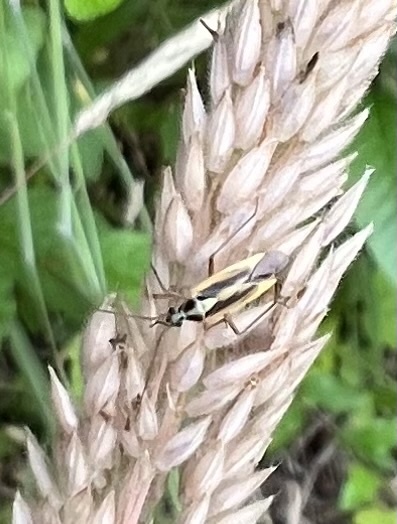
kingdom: Animalia
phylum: Arthropoda
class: Insecta
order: Hemiptera
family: Miridae
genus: Stenotus
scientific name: Stenotus binotatus
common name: Plant bug
